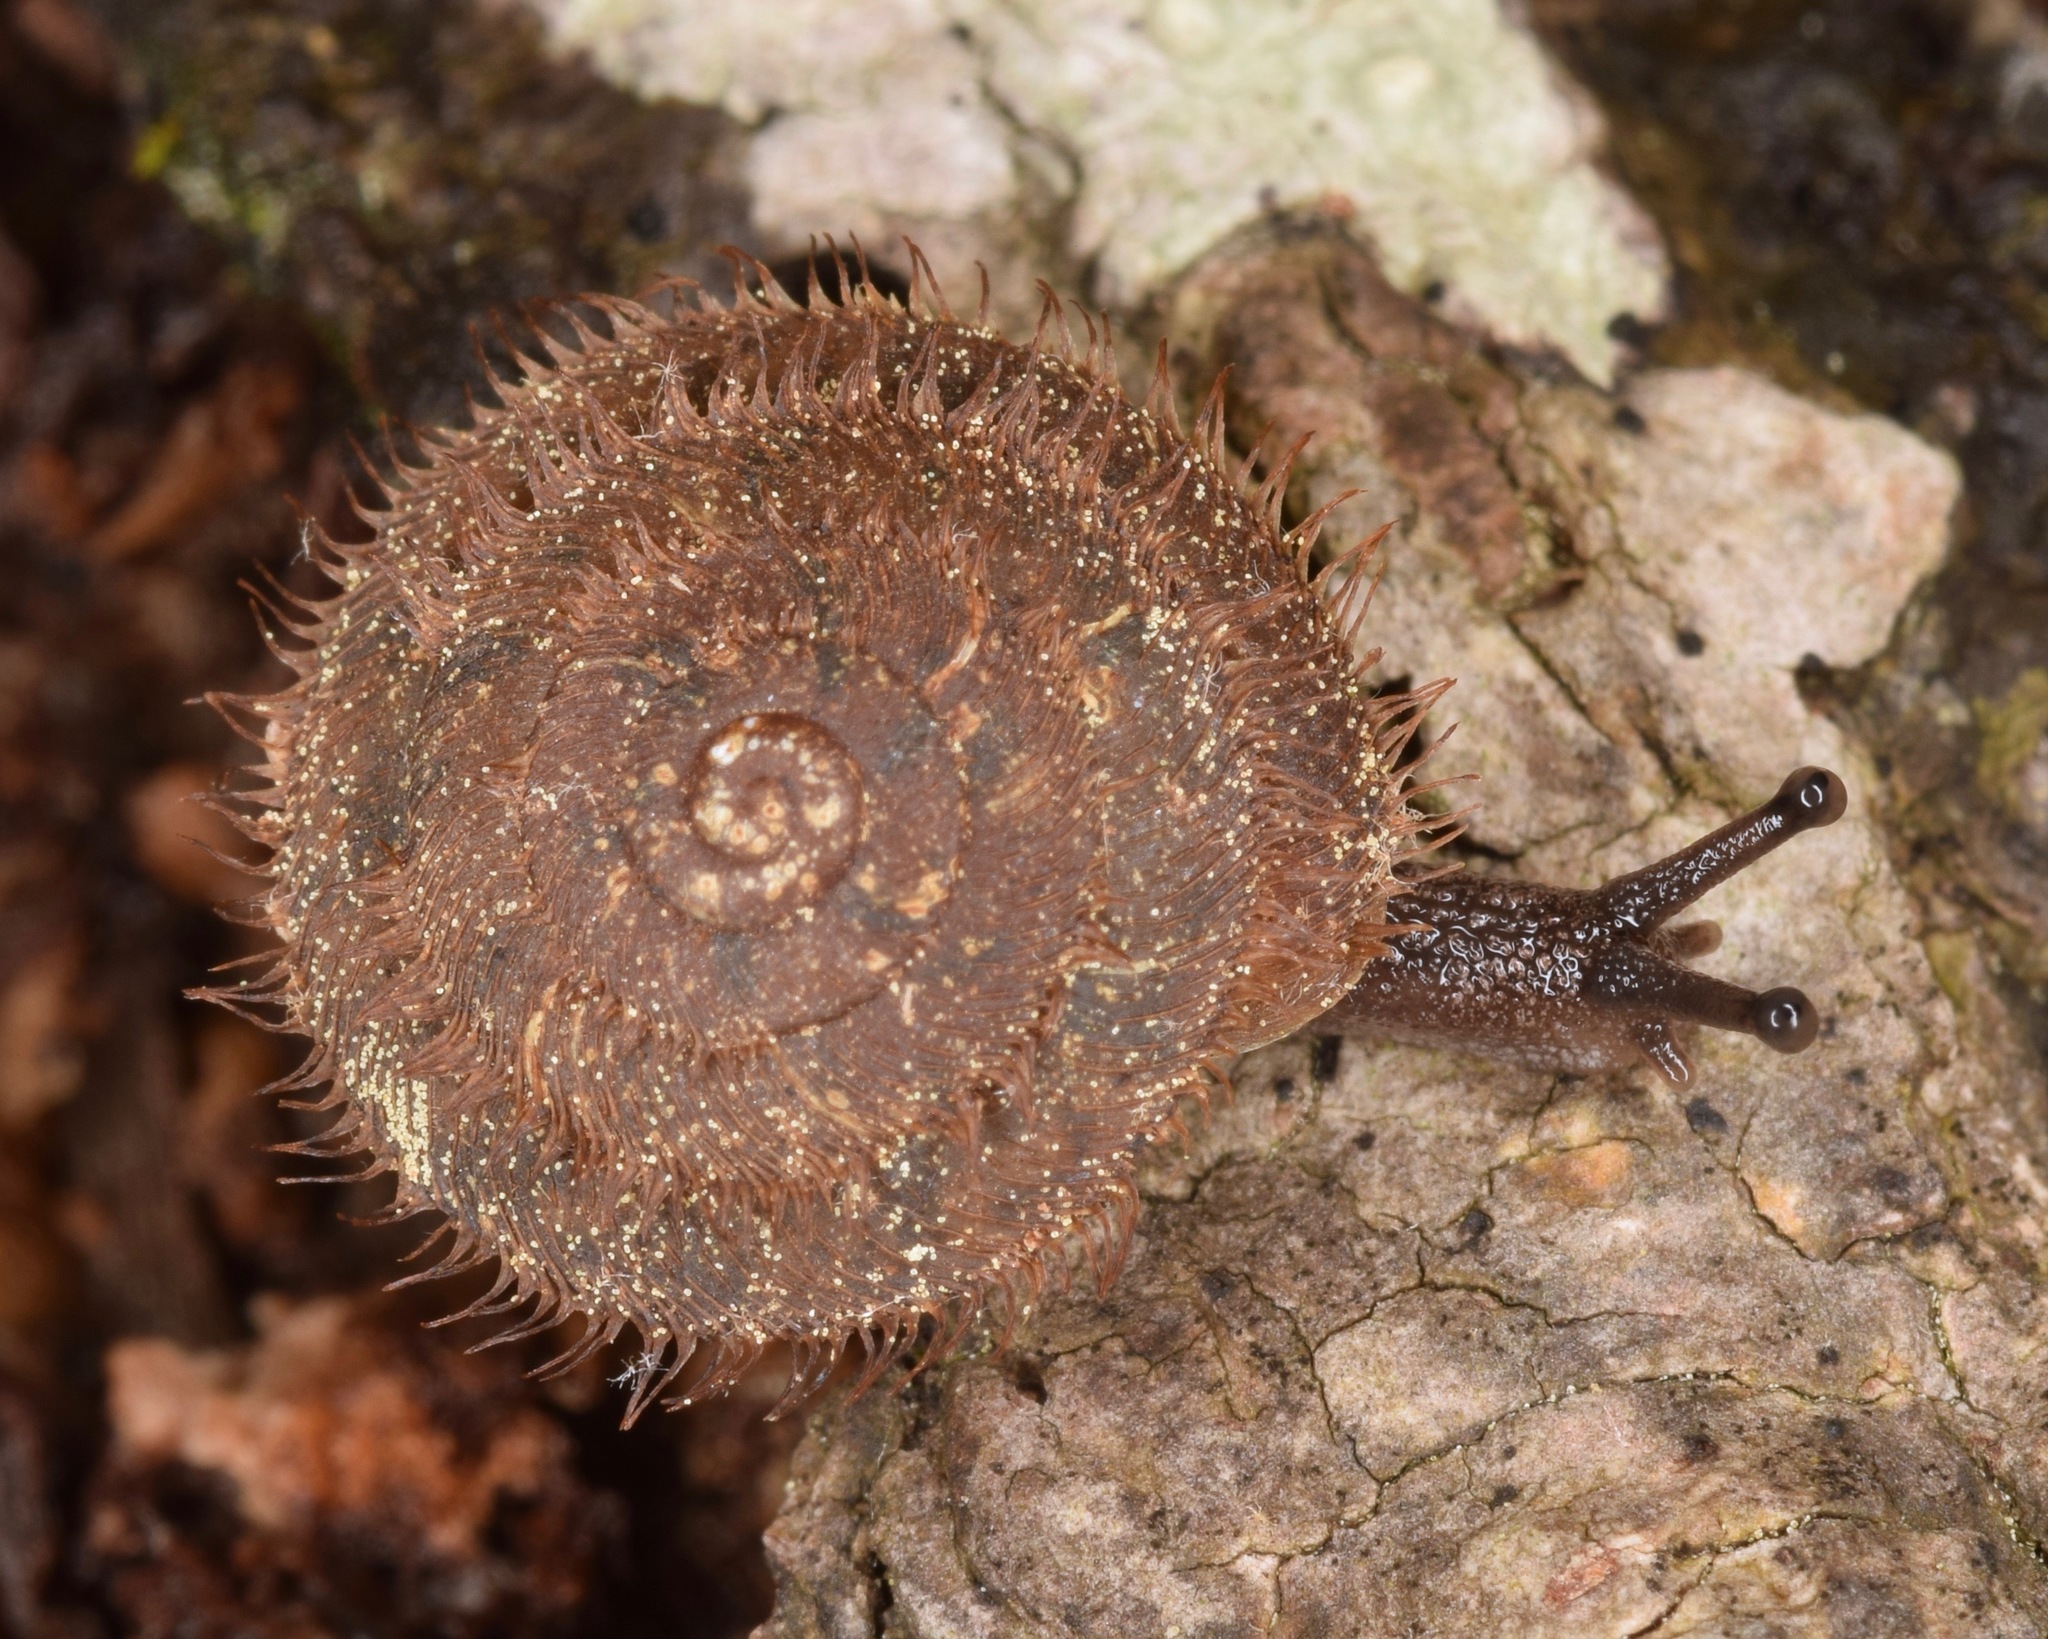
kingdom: Animalia
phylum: Mollusca
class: Gastropoda
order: Stylommatophora
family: Polygyridae
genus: Stenotrema
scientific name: Stenotrema barbigerum
